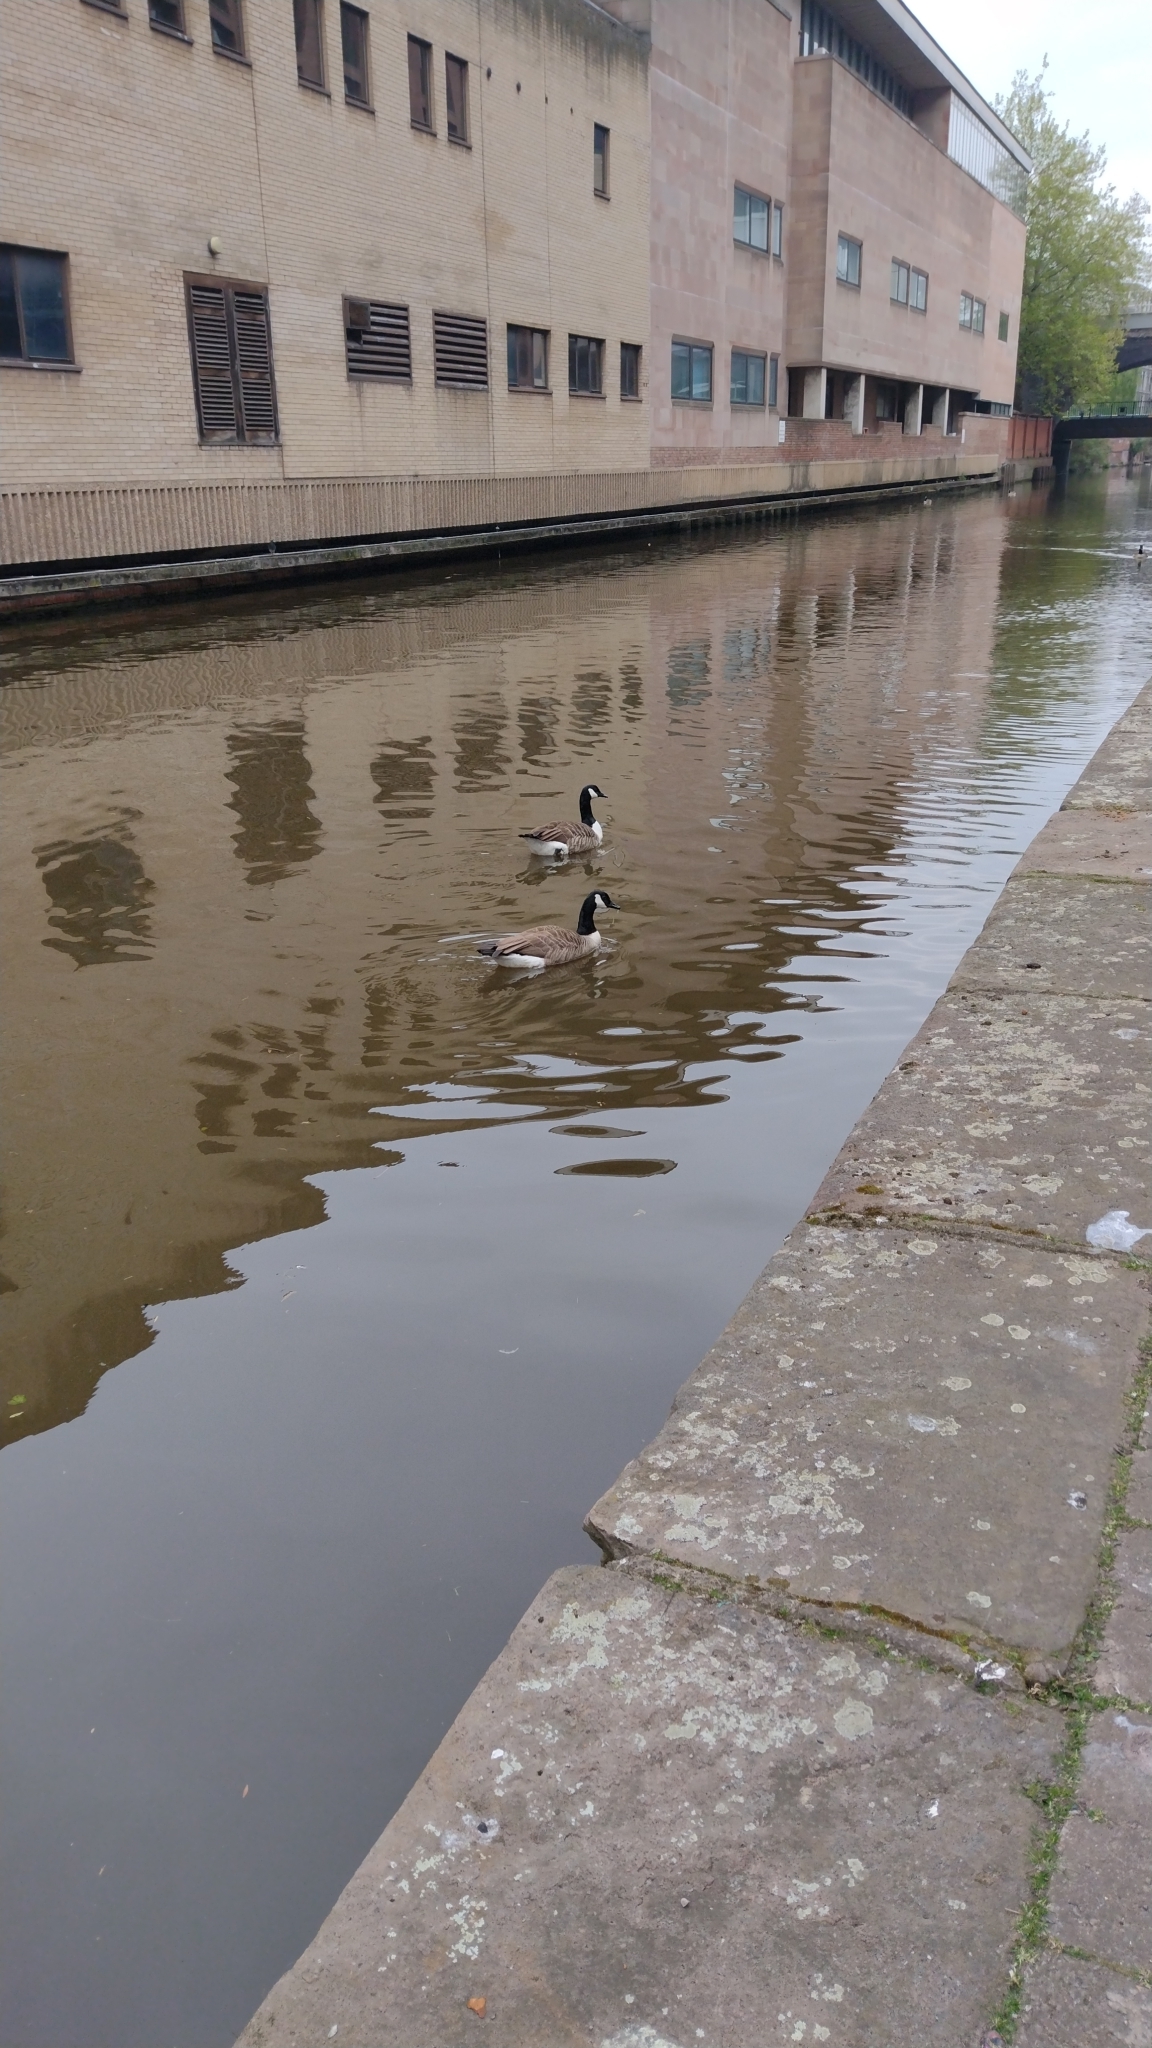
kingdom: Animalia
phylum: Chordata
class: Aves
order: Anseriformes
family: Anatidae
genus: Branta
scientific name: Branta canadensis
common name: Canada goose
